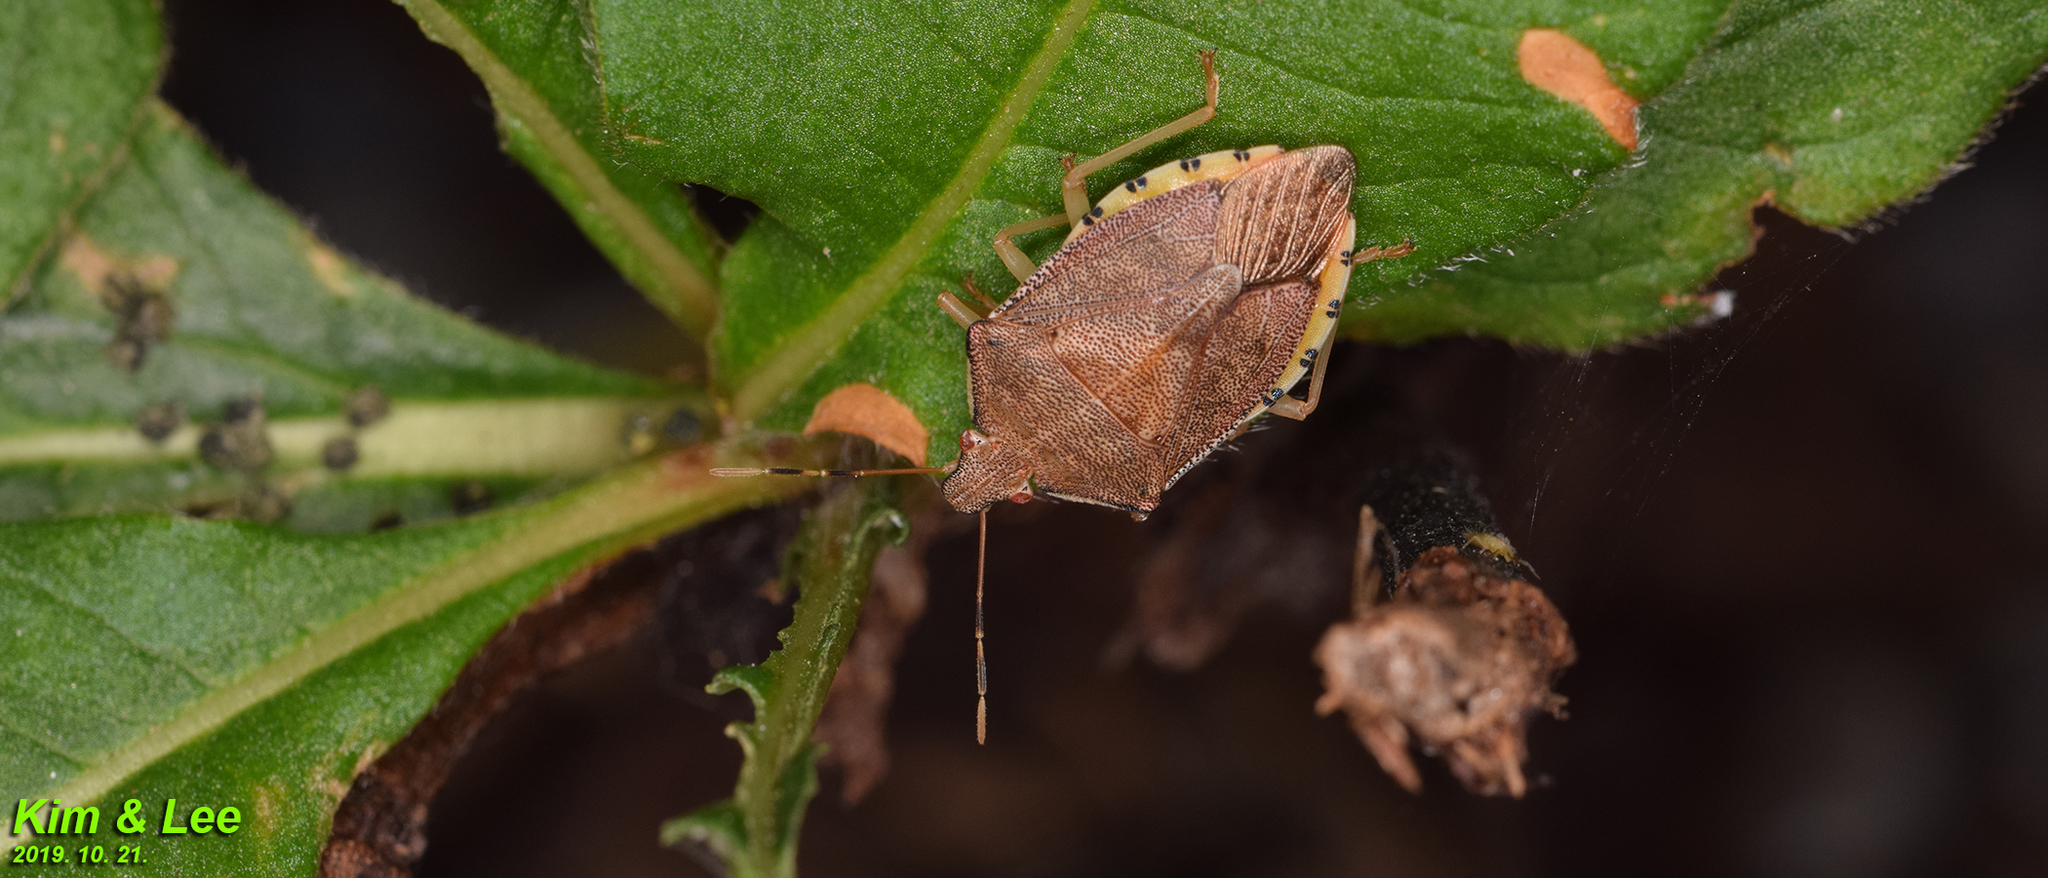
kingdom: Animalia
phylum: Arthropoda
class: Insecta
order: Hemiptera
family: Pentatomidae
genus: Arma
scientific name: Arma koreana
